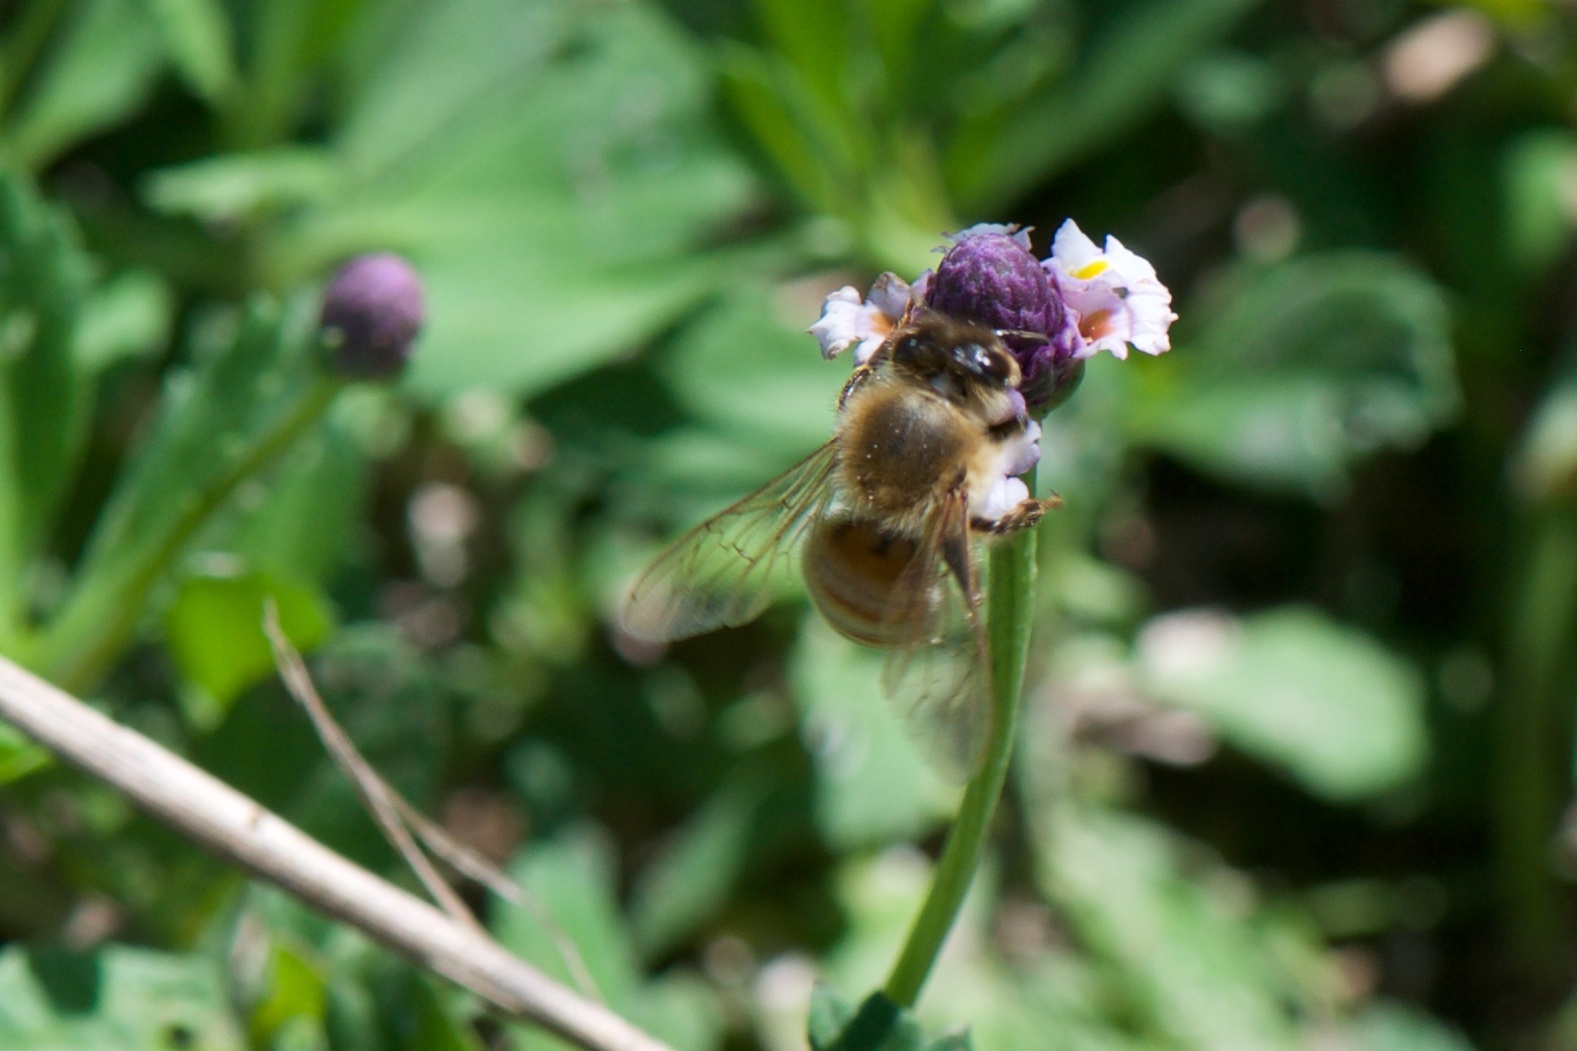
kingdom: Animalia
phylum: Arthropoda
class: Insecta
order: Hymenoptera
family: Apidae
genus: Apis
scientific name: Apis mellifera
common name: Honey bee
